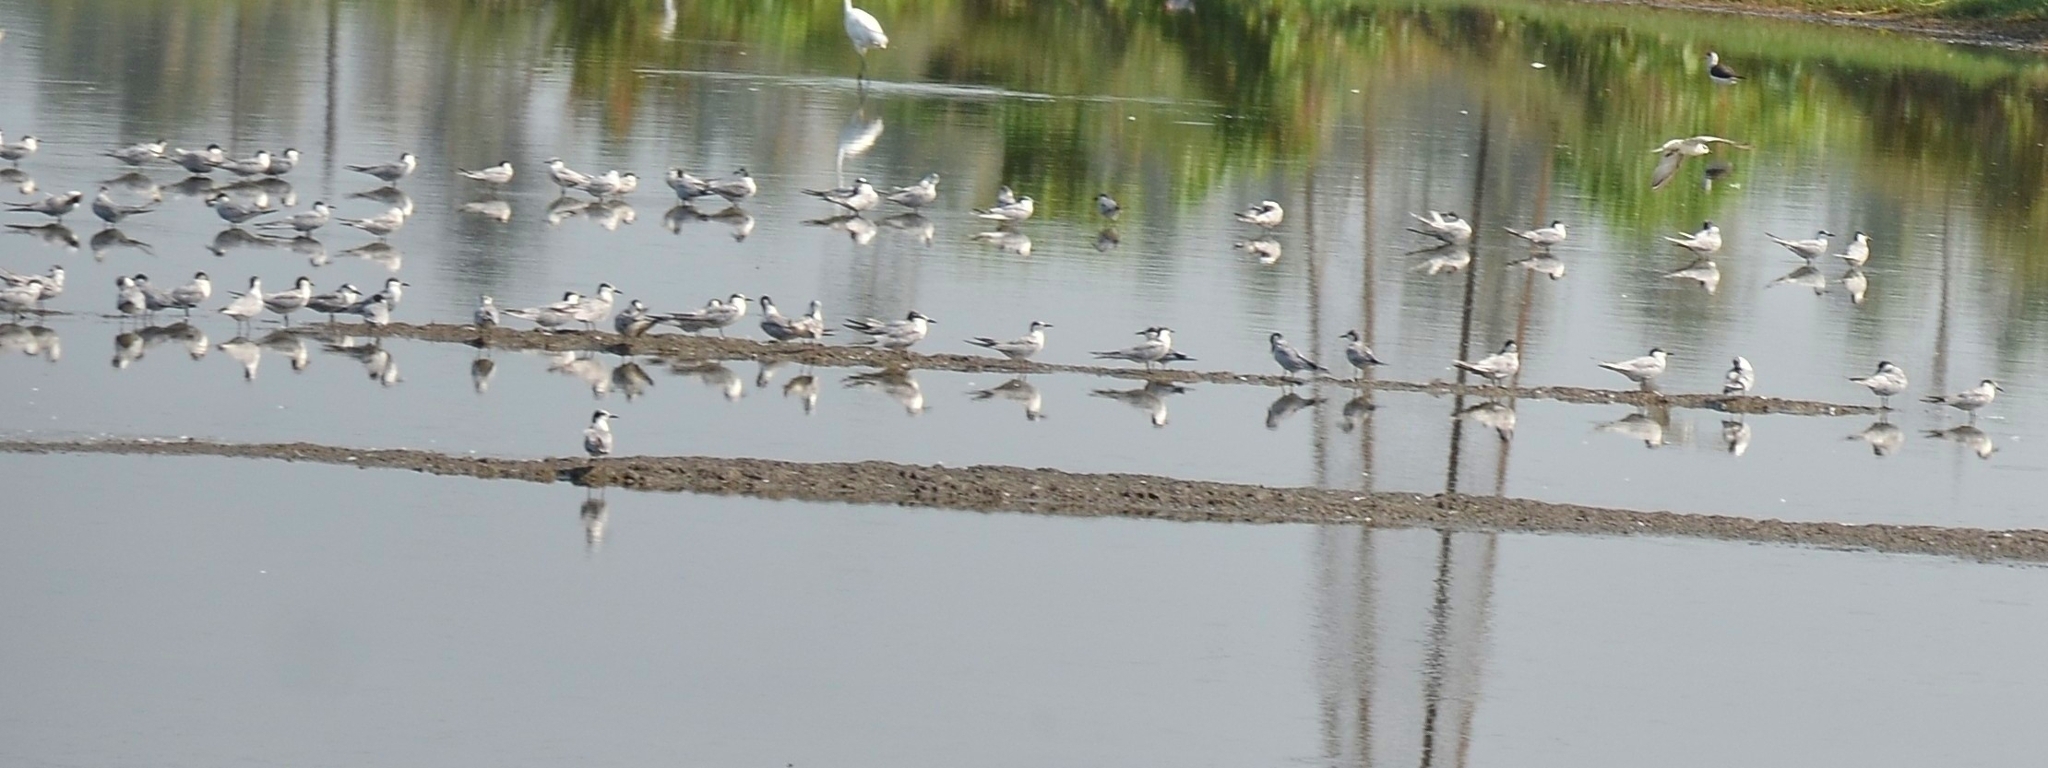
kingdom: Animalia
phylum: Chordata
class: Aves
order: Charadriiformes
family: Laridae
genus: Chlidonias
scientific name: Chlidonias hybrida
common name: Whiskered tern
